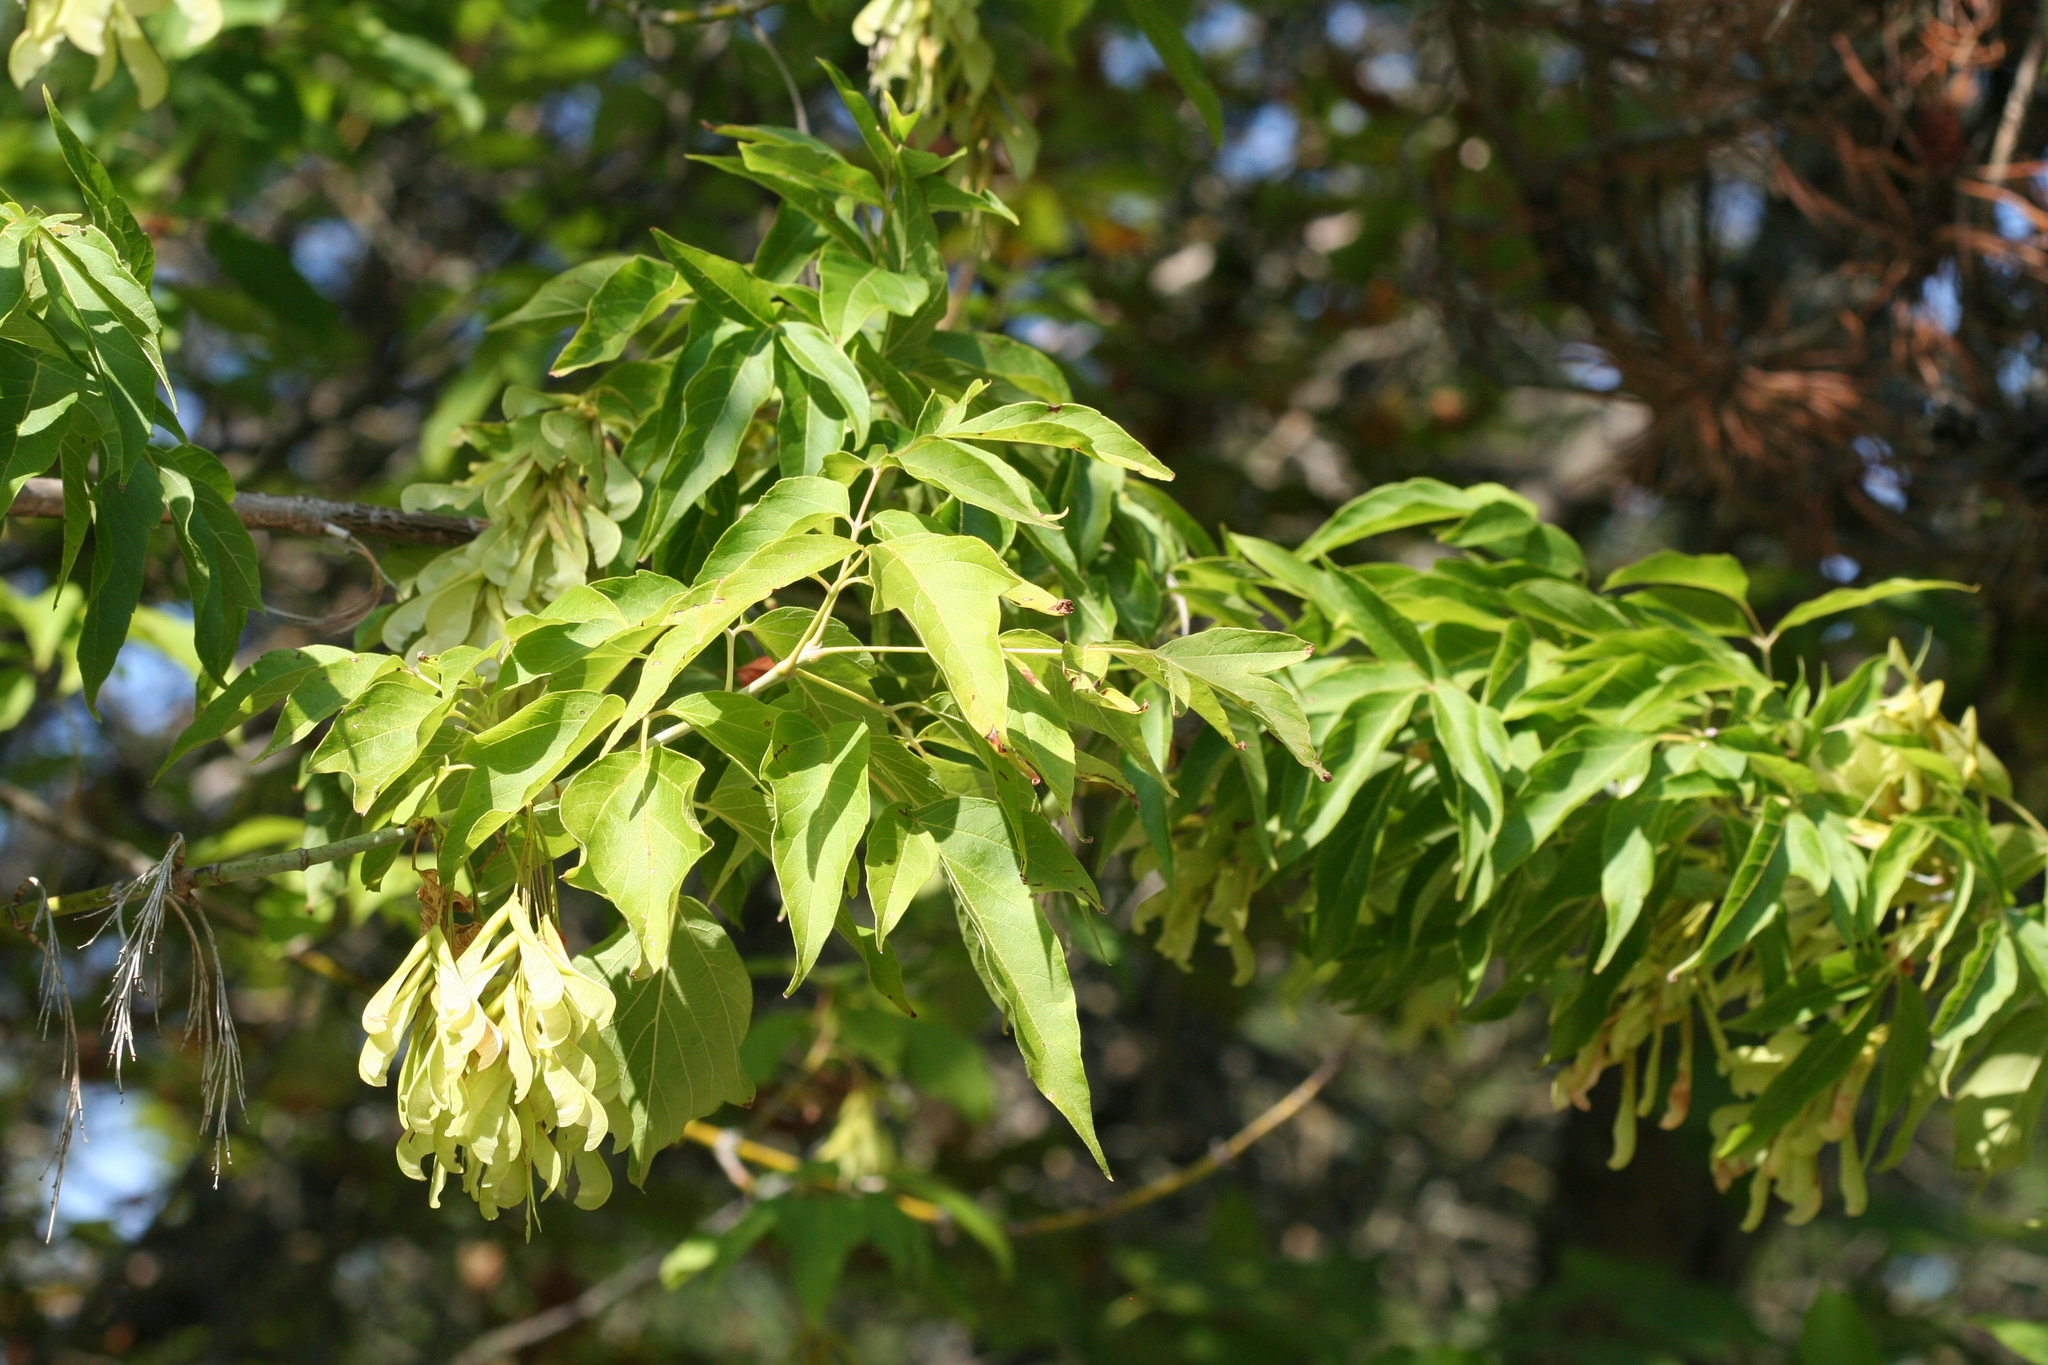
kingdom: Plantae
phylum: Tracheophyta
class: Magnoliopsida
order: Sapindales
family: Sapindaceae
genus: Acer
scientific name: Acer negundo
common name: Ashleaf maple
